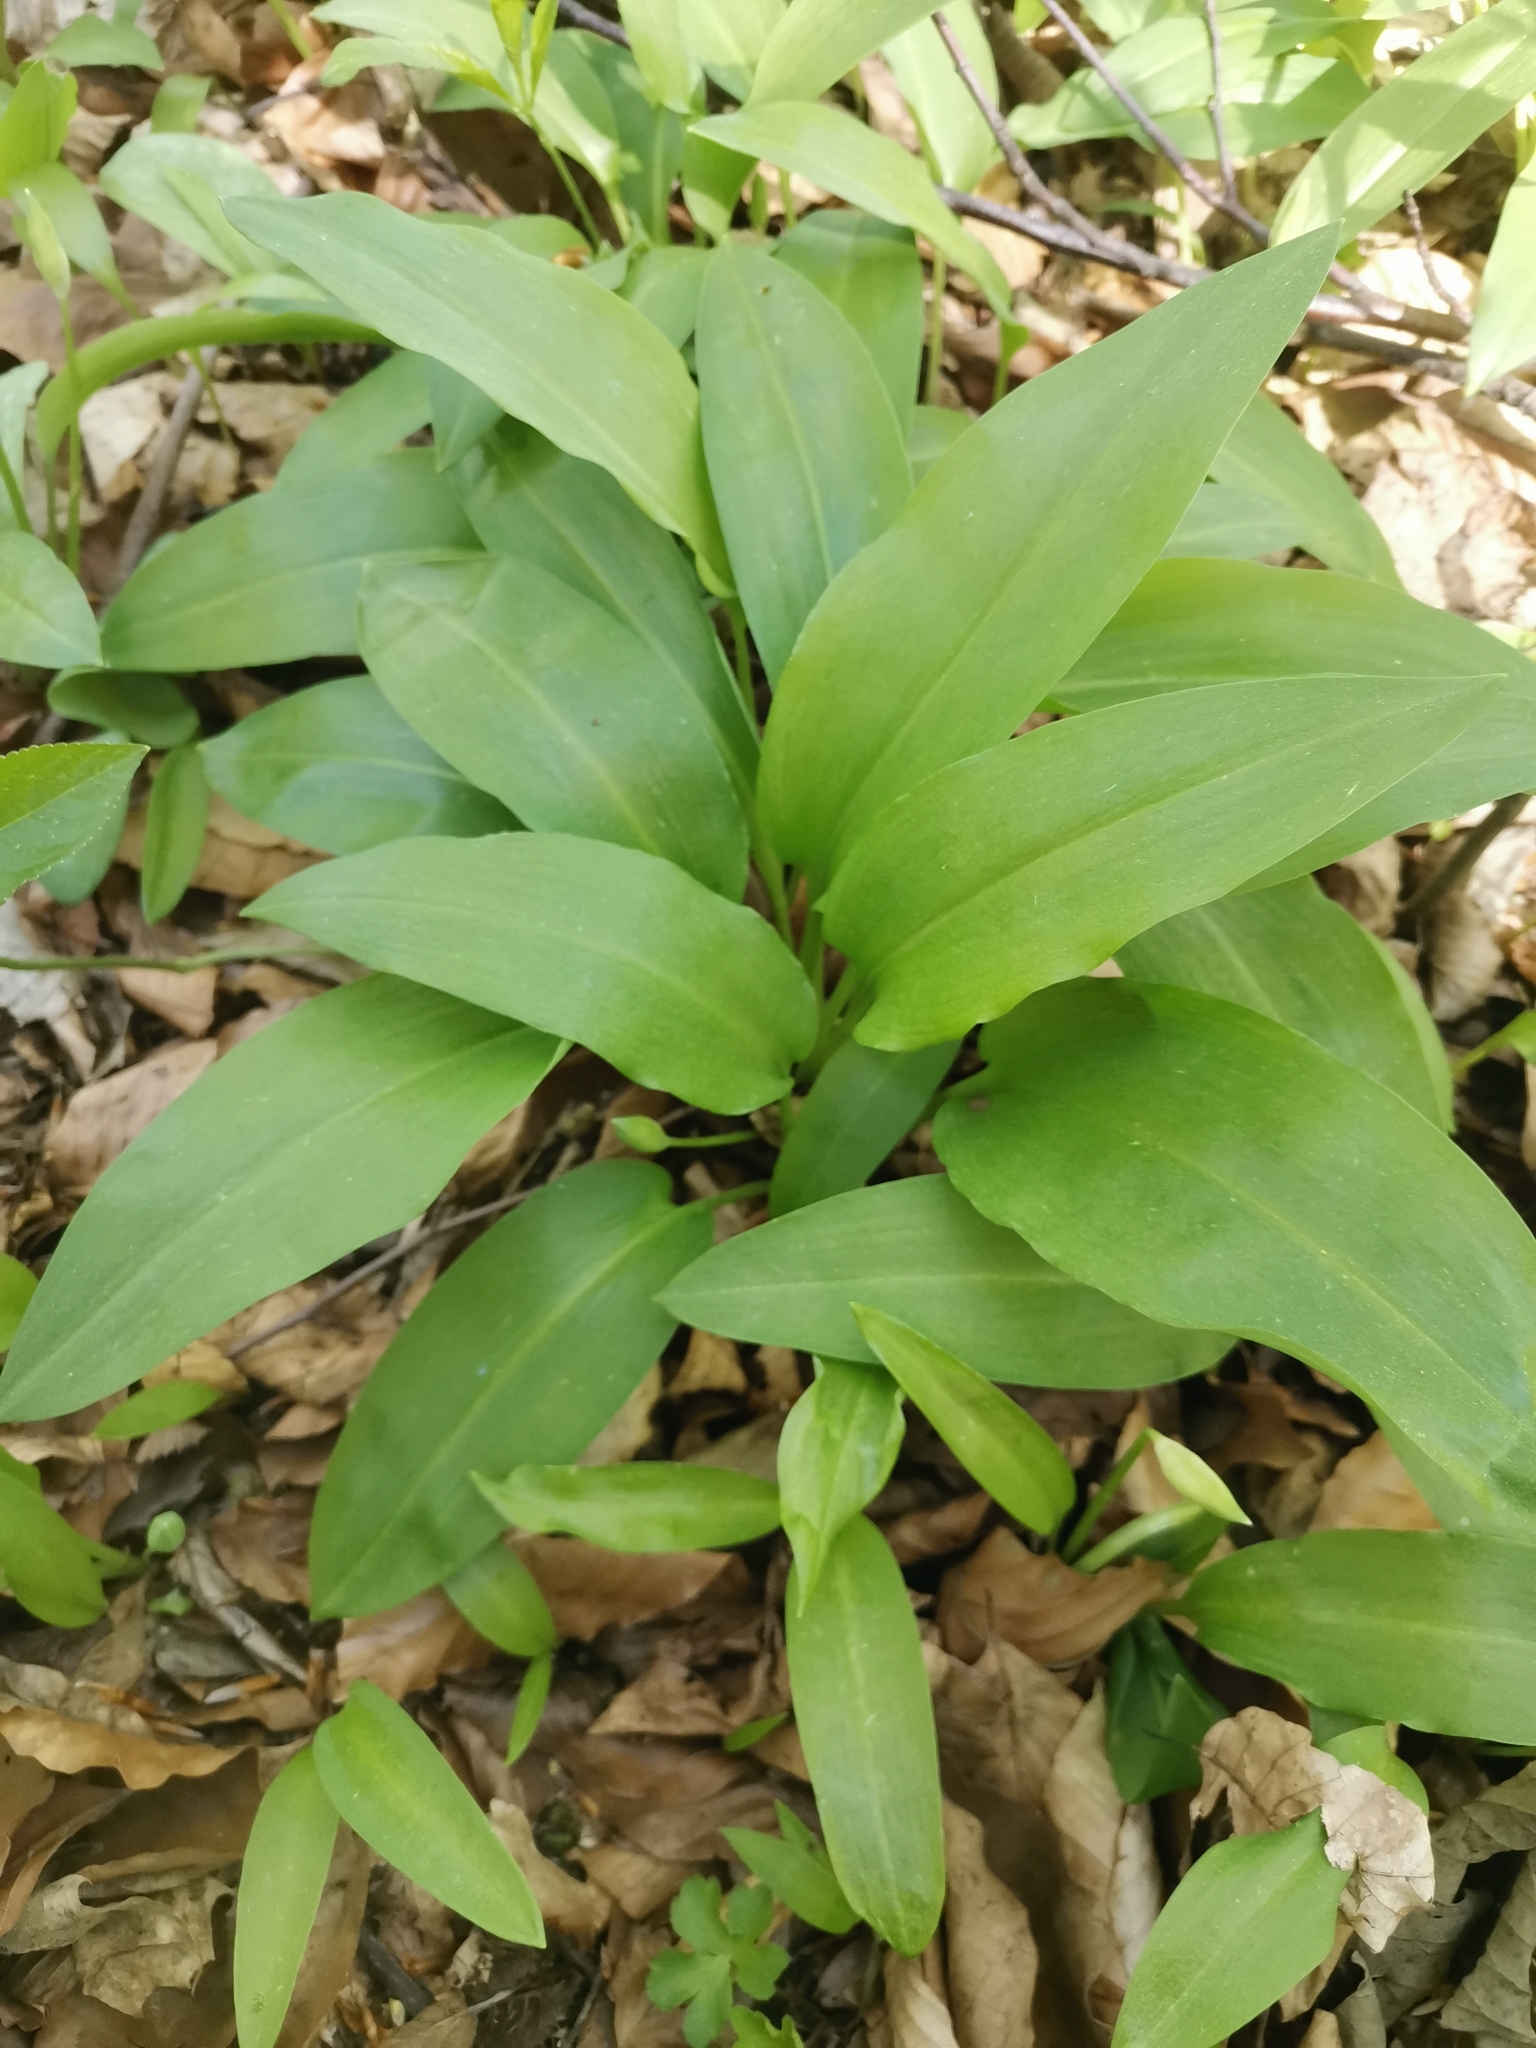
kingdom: Plantae
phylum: Tracheophyta
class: Liliopsida
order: Asparagales
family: Amaryllidaceae
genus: Allium
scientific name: Allium ursinum
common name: Ramsons
